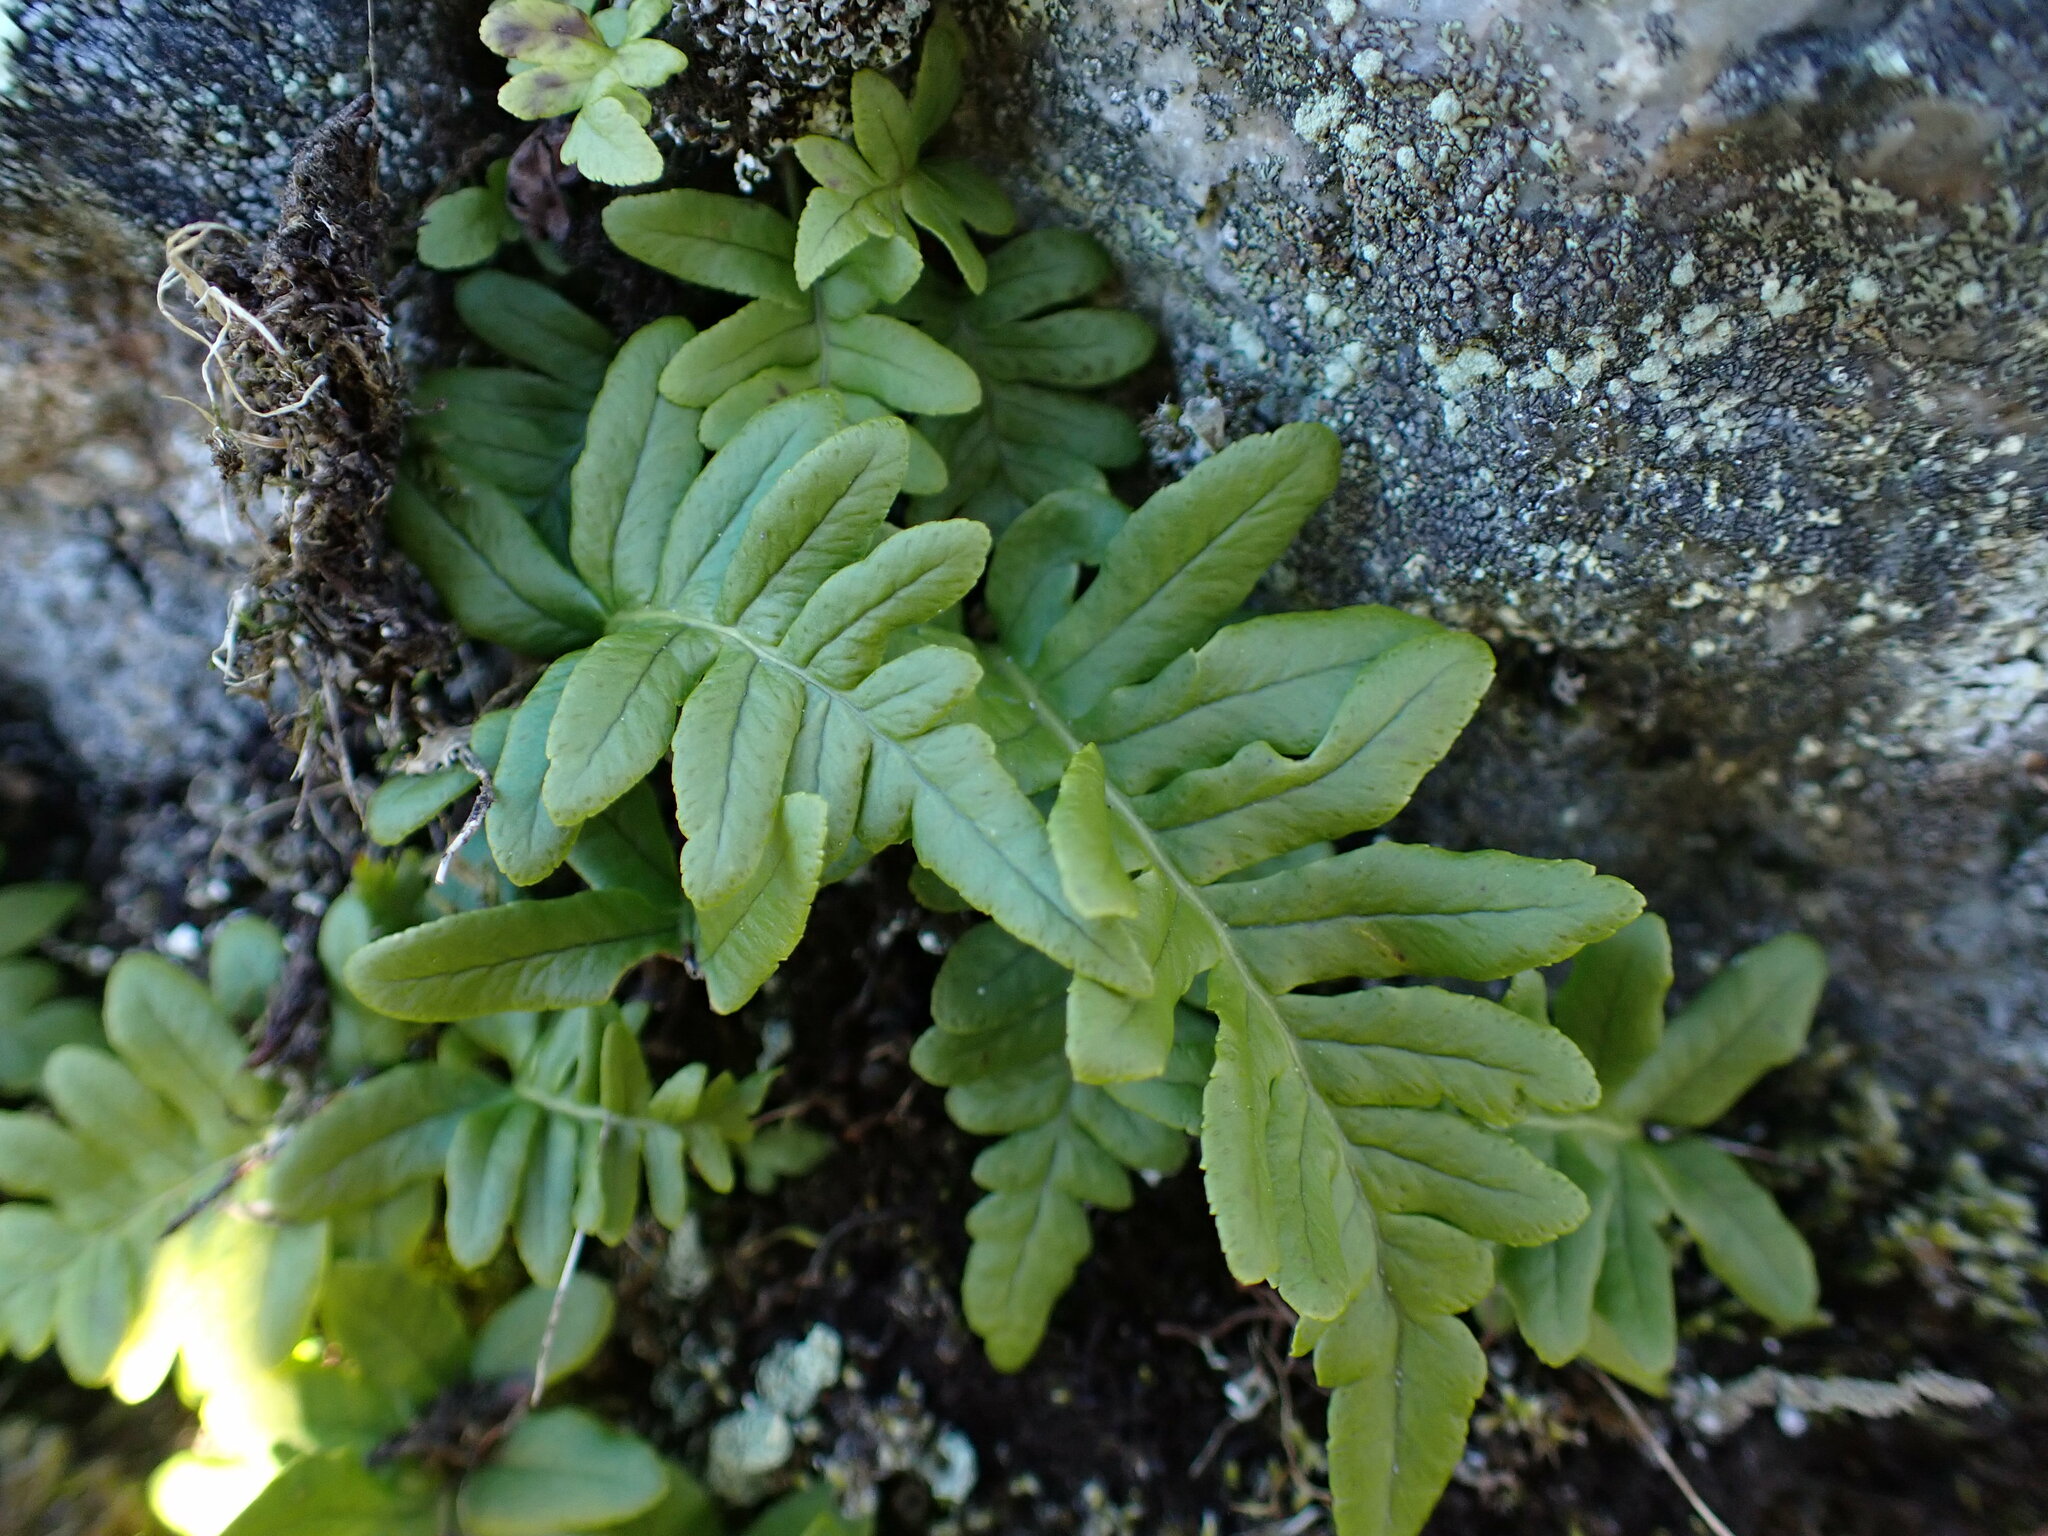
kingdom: Plantae
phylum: Tracheophyta
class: Polypodiopsida
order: Polypodiales
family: Polypodiaceae
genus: Polypodium
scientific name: Polypodium glycyrrhiza
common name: Licorice fern
